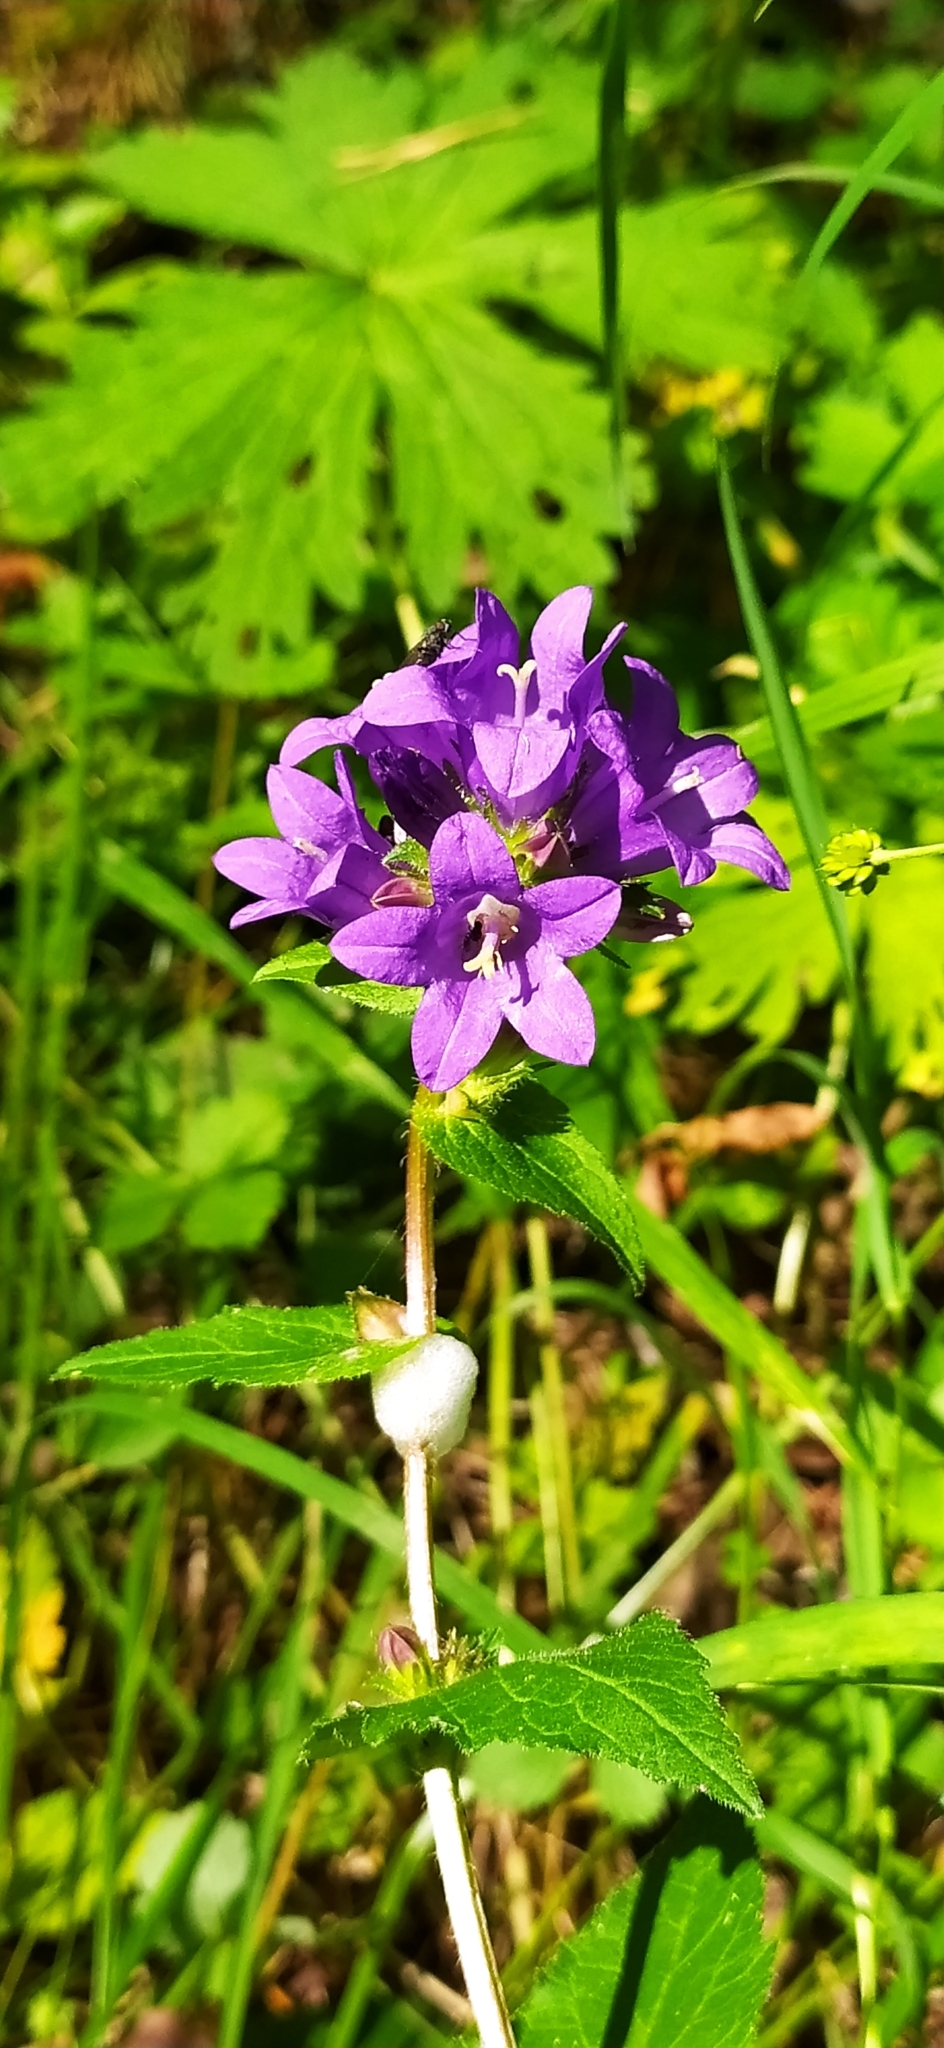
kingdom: Plantae
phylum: Tracheophyta
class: Magnoliopsida
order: Asterales
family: Campanulaceae
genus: Campanula
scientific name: Campanula glomerata
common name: Clustered bellflower
